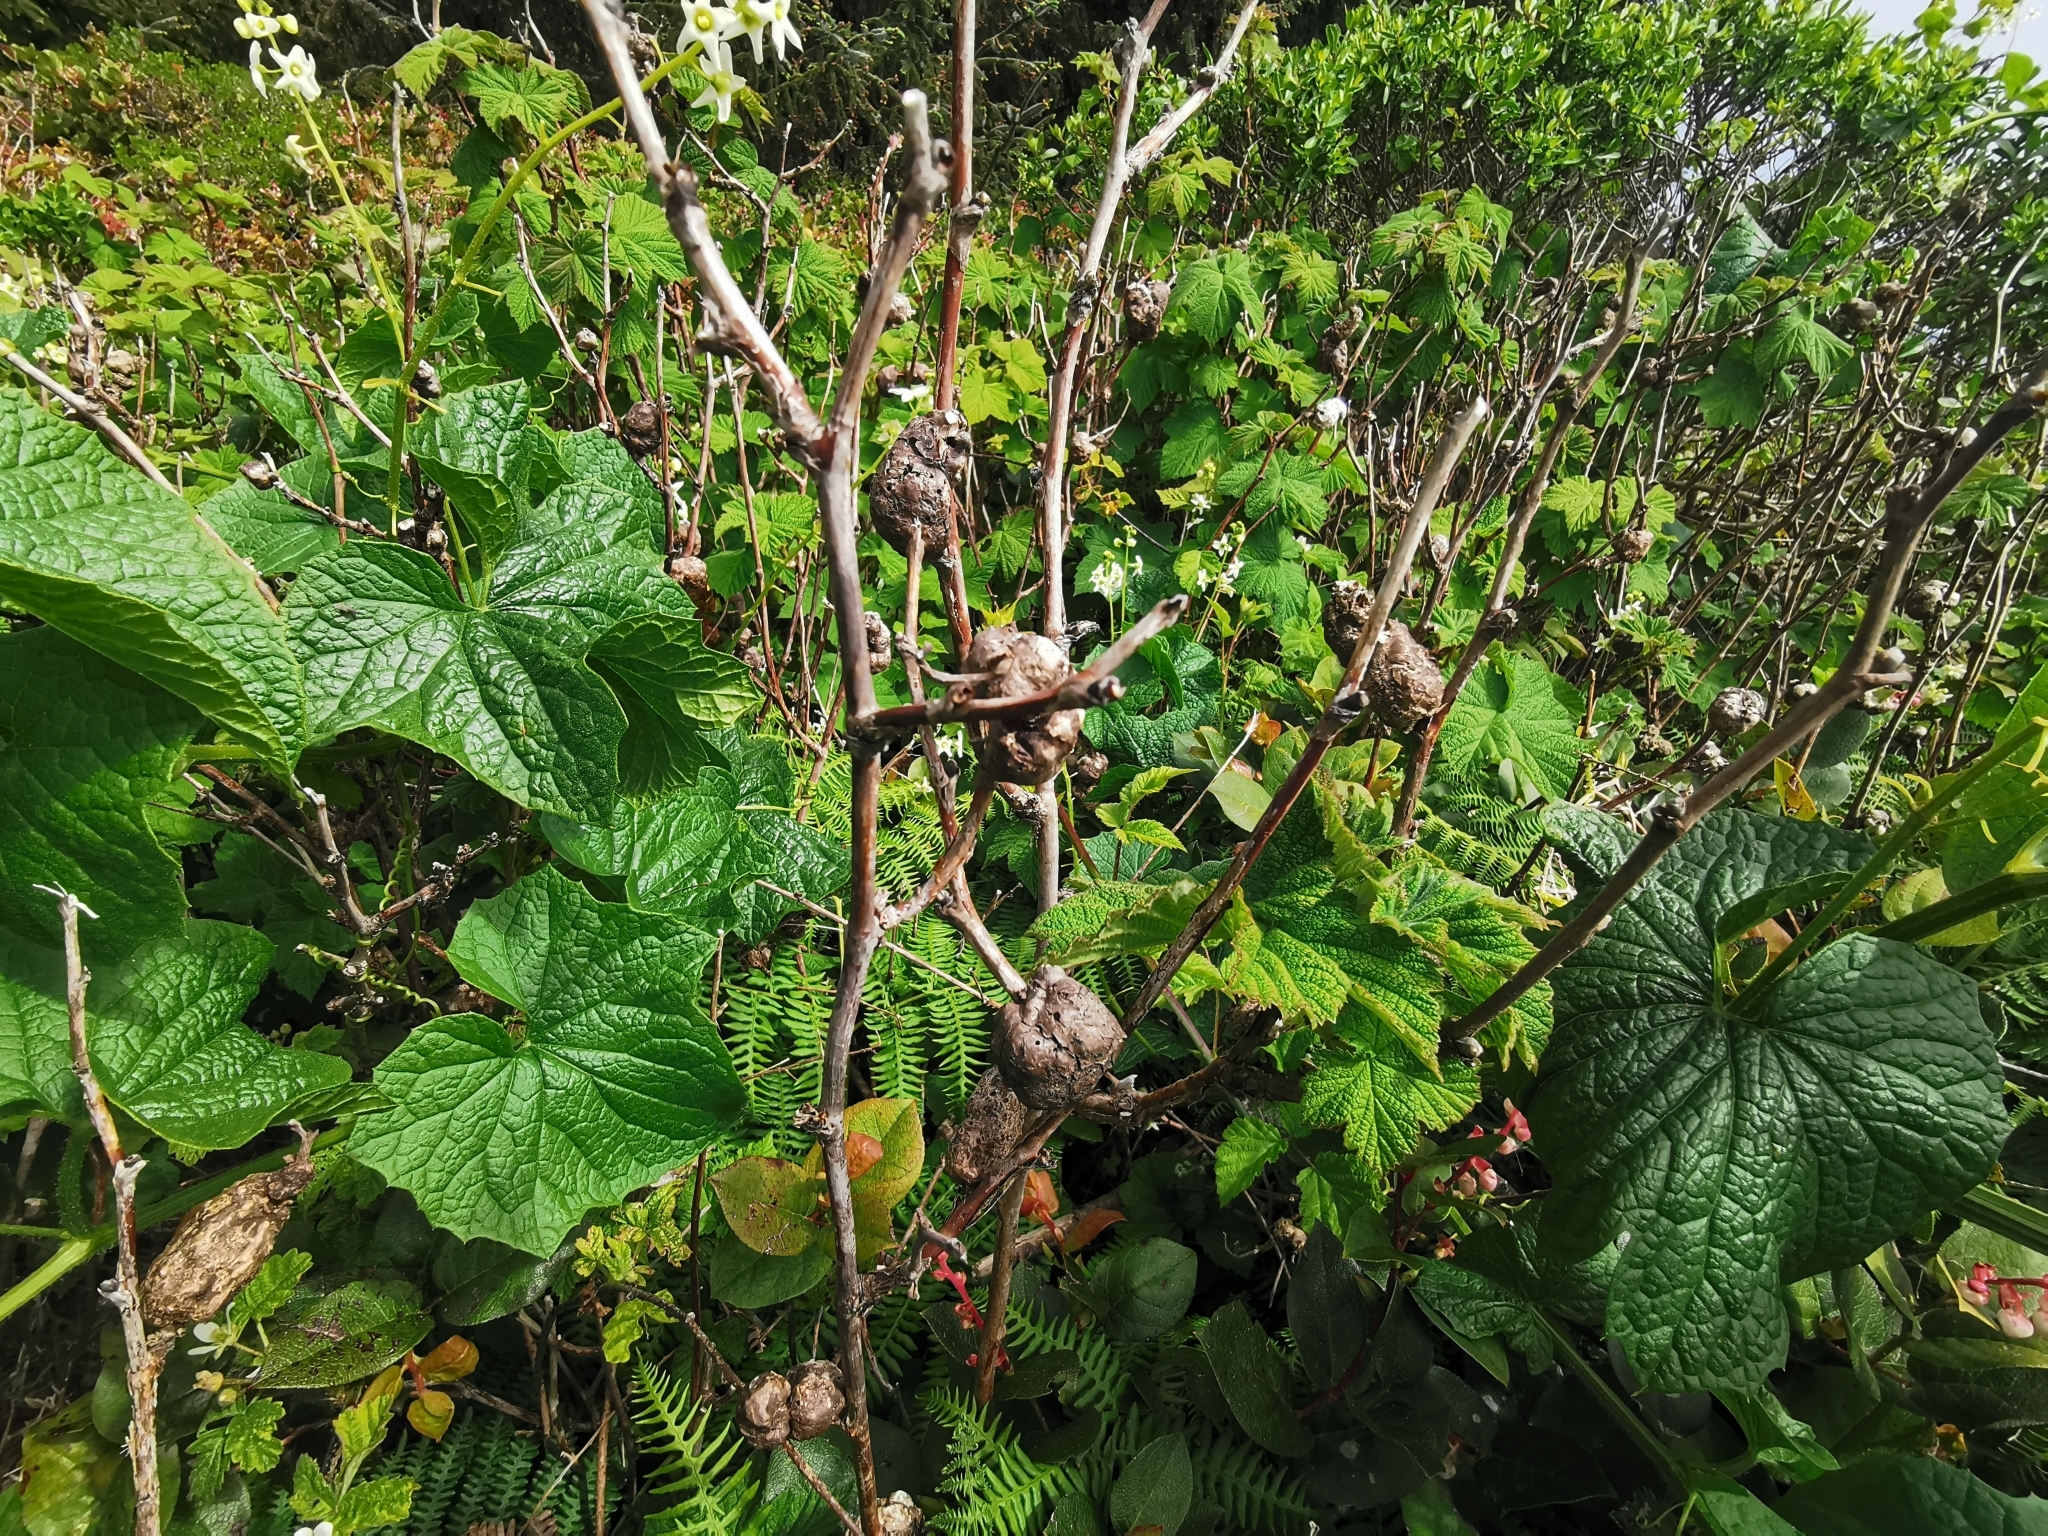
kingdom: Animalia
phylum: Arthropoda
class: Insecta
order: Hymenoptera
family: Cynipidae
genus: Diastrophus
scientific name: Diastrophus
